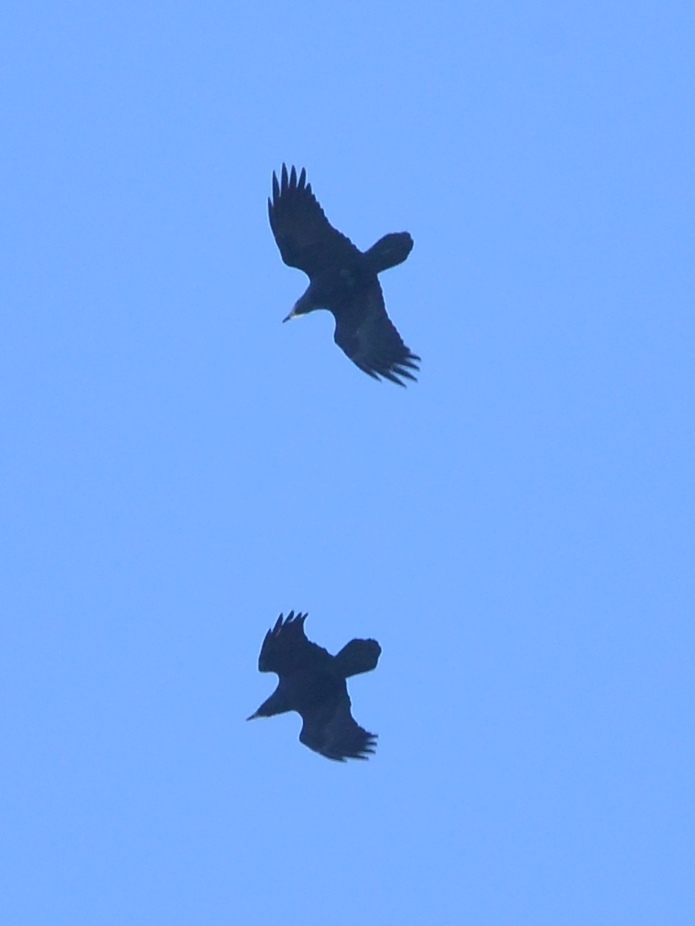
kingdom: Animalia
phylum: Chordata
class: Aves
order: Passeriformes
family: Corvidae
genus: Corvus
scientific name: Corvus frugilegus
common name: Rook
